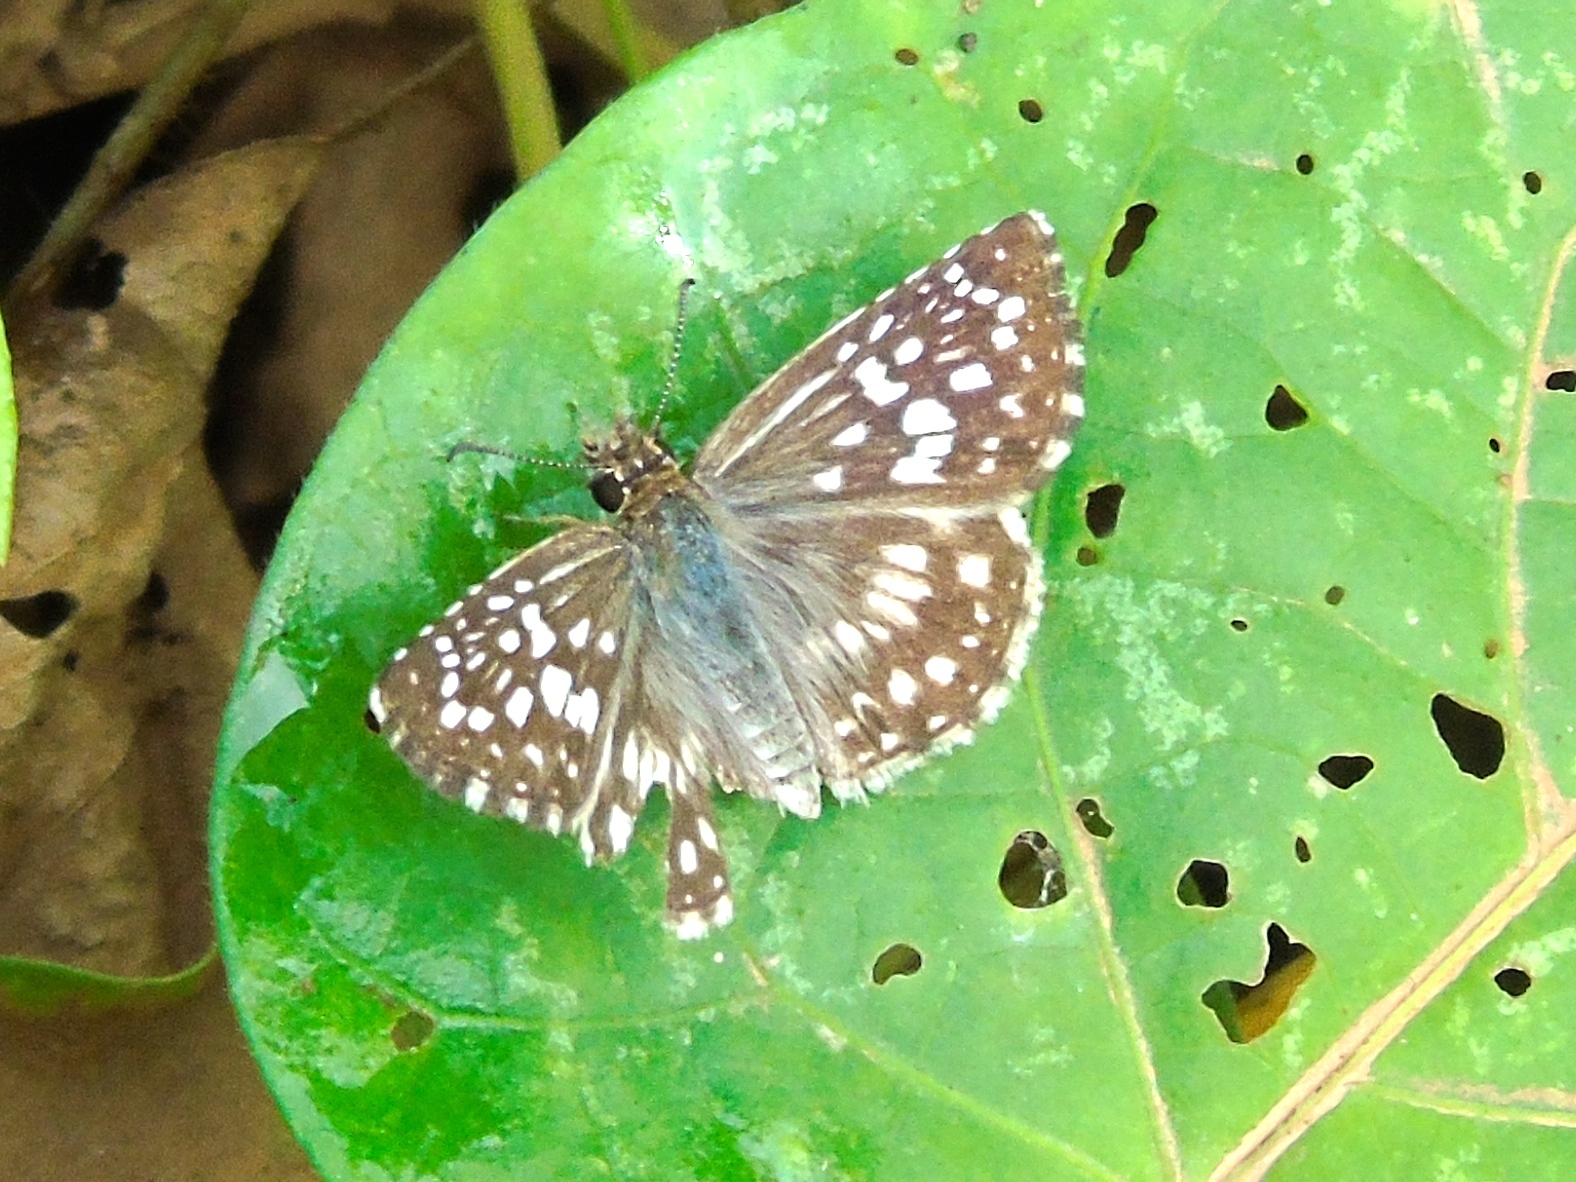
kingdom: Animalia
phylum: Arthropoda
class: Insecta
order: Lepidoptera
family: Hesperiidae
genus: Pyrgus
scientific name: Pyrgus oileus
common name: Tropical checkered-skipper
